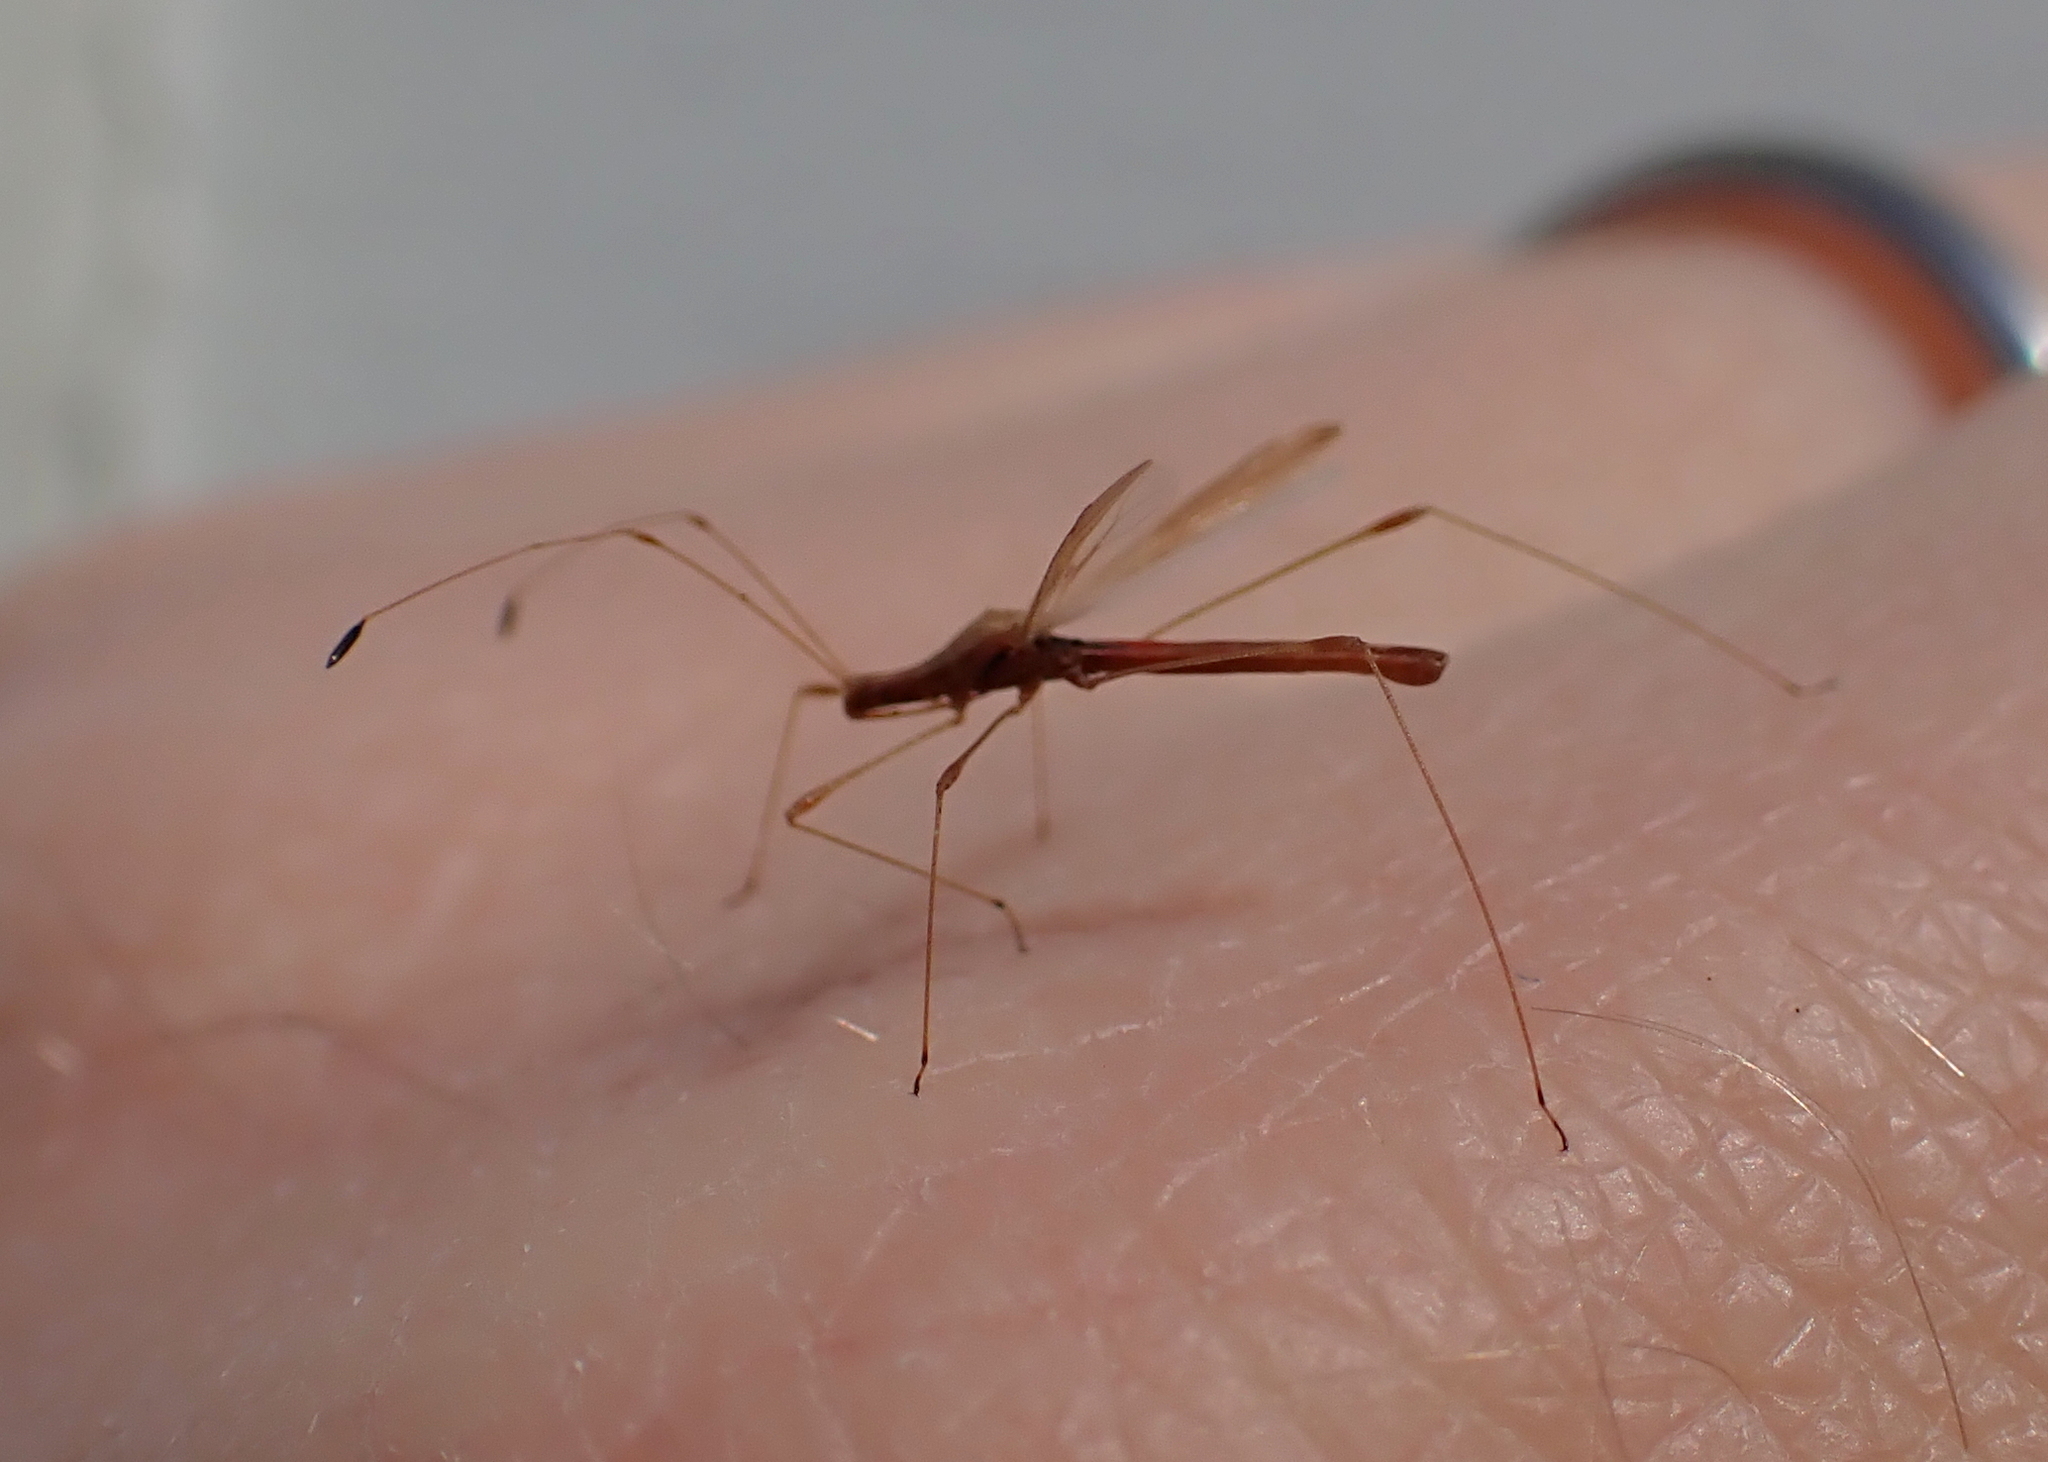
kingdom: Animalia
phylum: Arthropoda
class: Insecta
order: Hemiptera
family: Berytidae
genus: Neoneides
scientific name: Neoneides muticus
